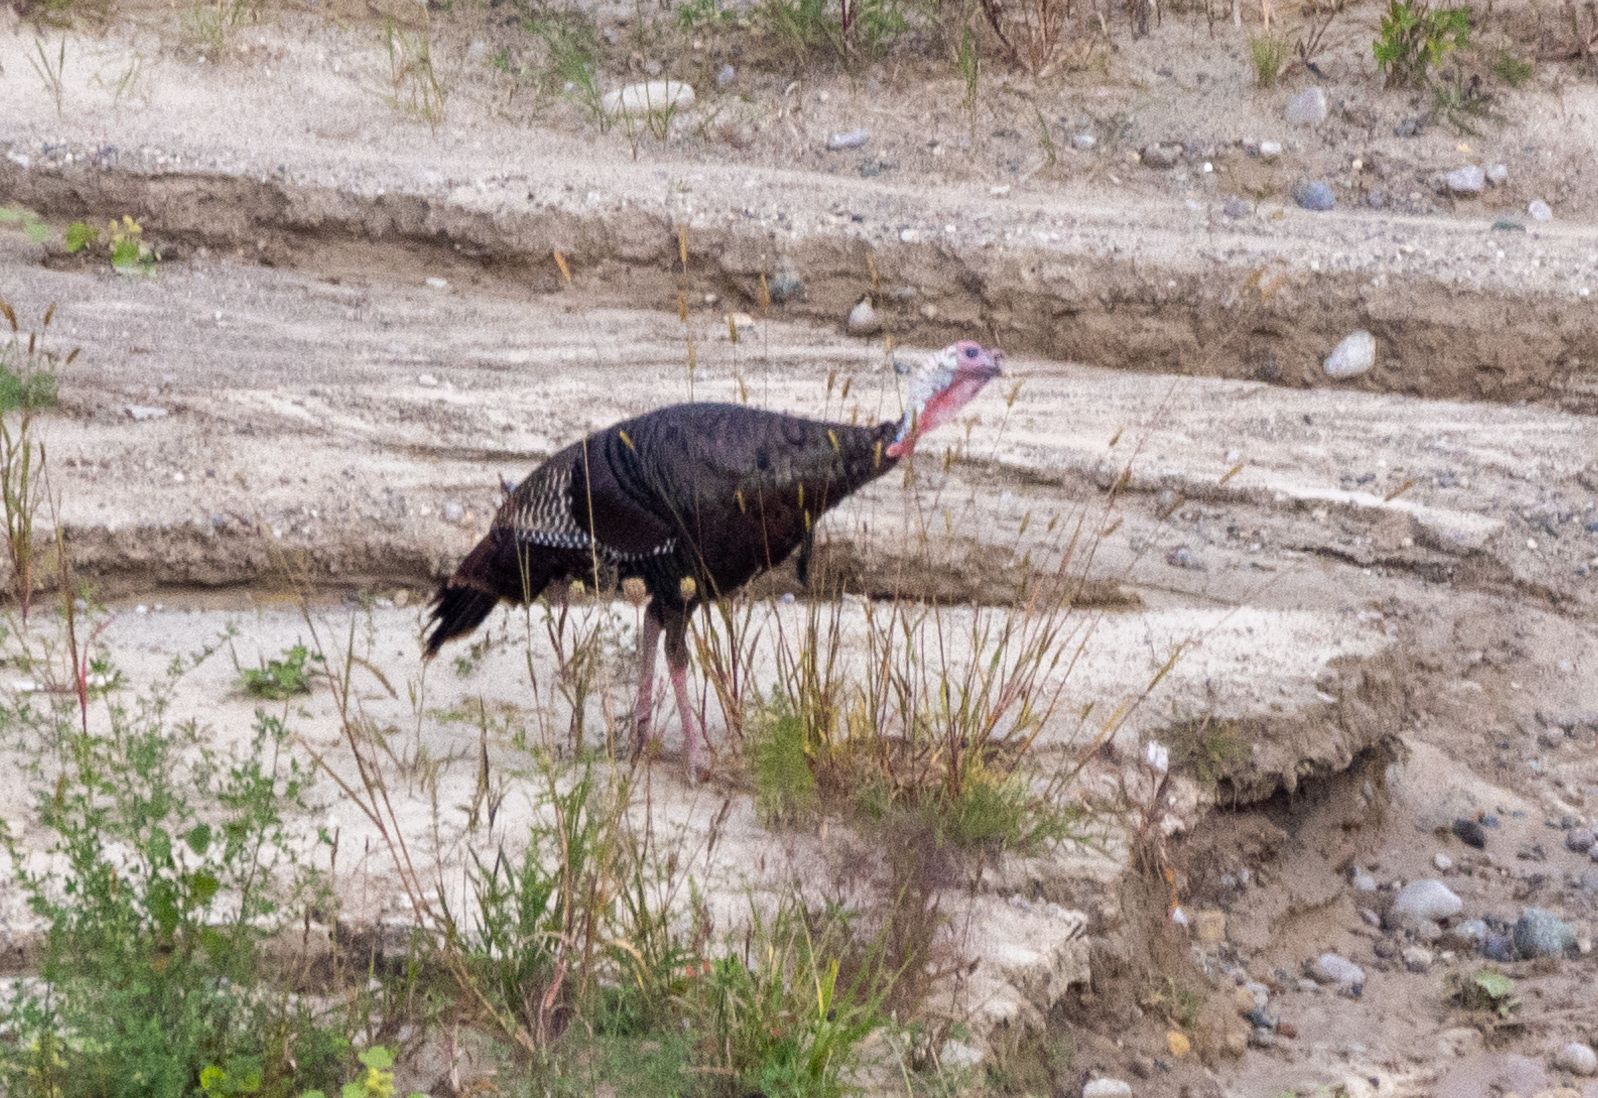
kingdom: Animalia
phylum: Chordata
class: Aves
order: Galliformes
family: Phasianidae
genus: Meleagris
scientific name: Meleagris gallopavo
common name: Wild turkey
